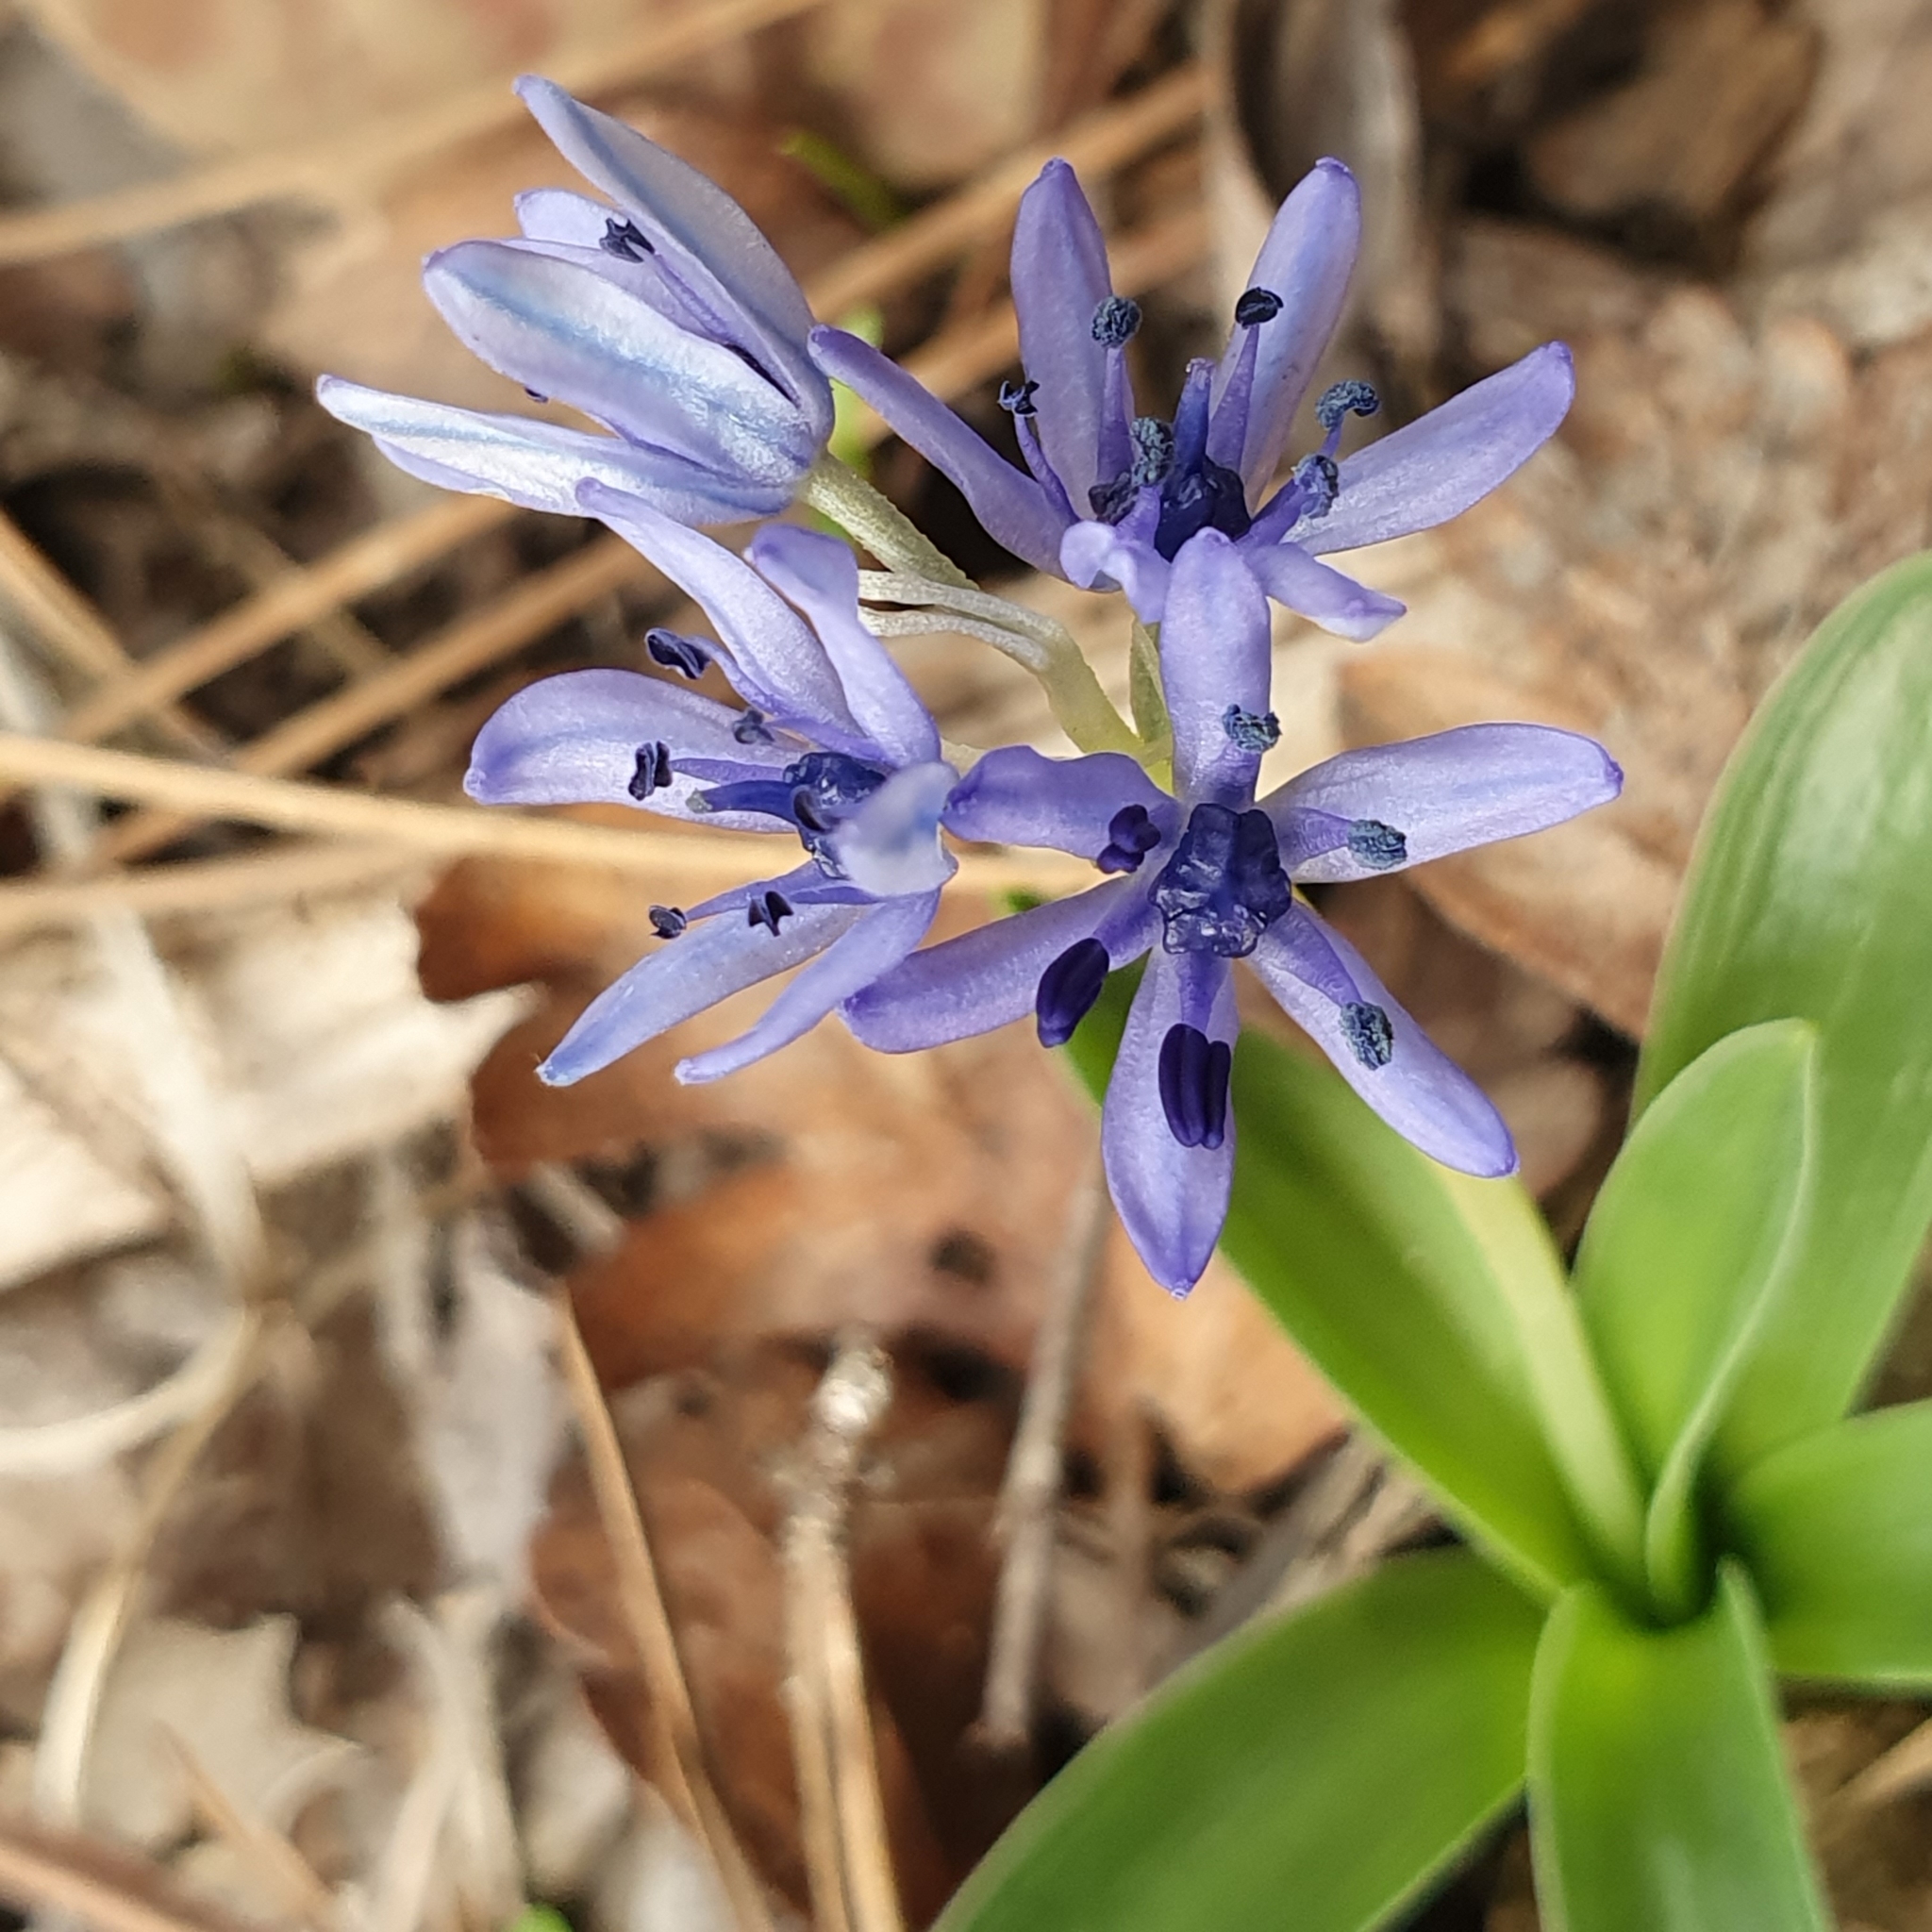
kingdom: Plantae
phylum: Tracheophyta
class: Liliopsida
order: Asparagales
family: Asparagaceae
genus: Hyacinthoides
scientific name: Hyacinthoides lingulata
